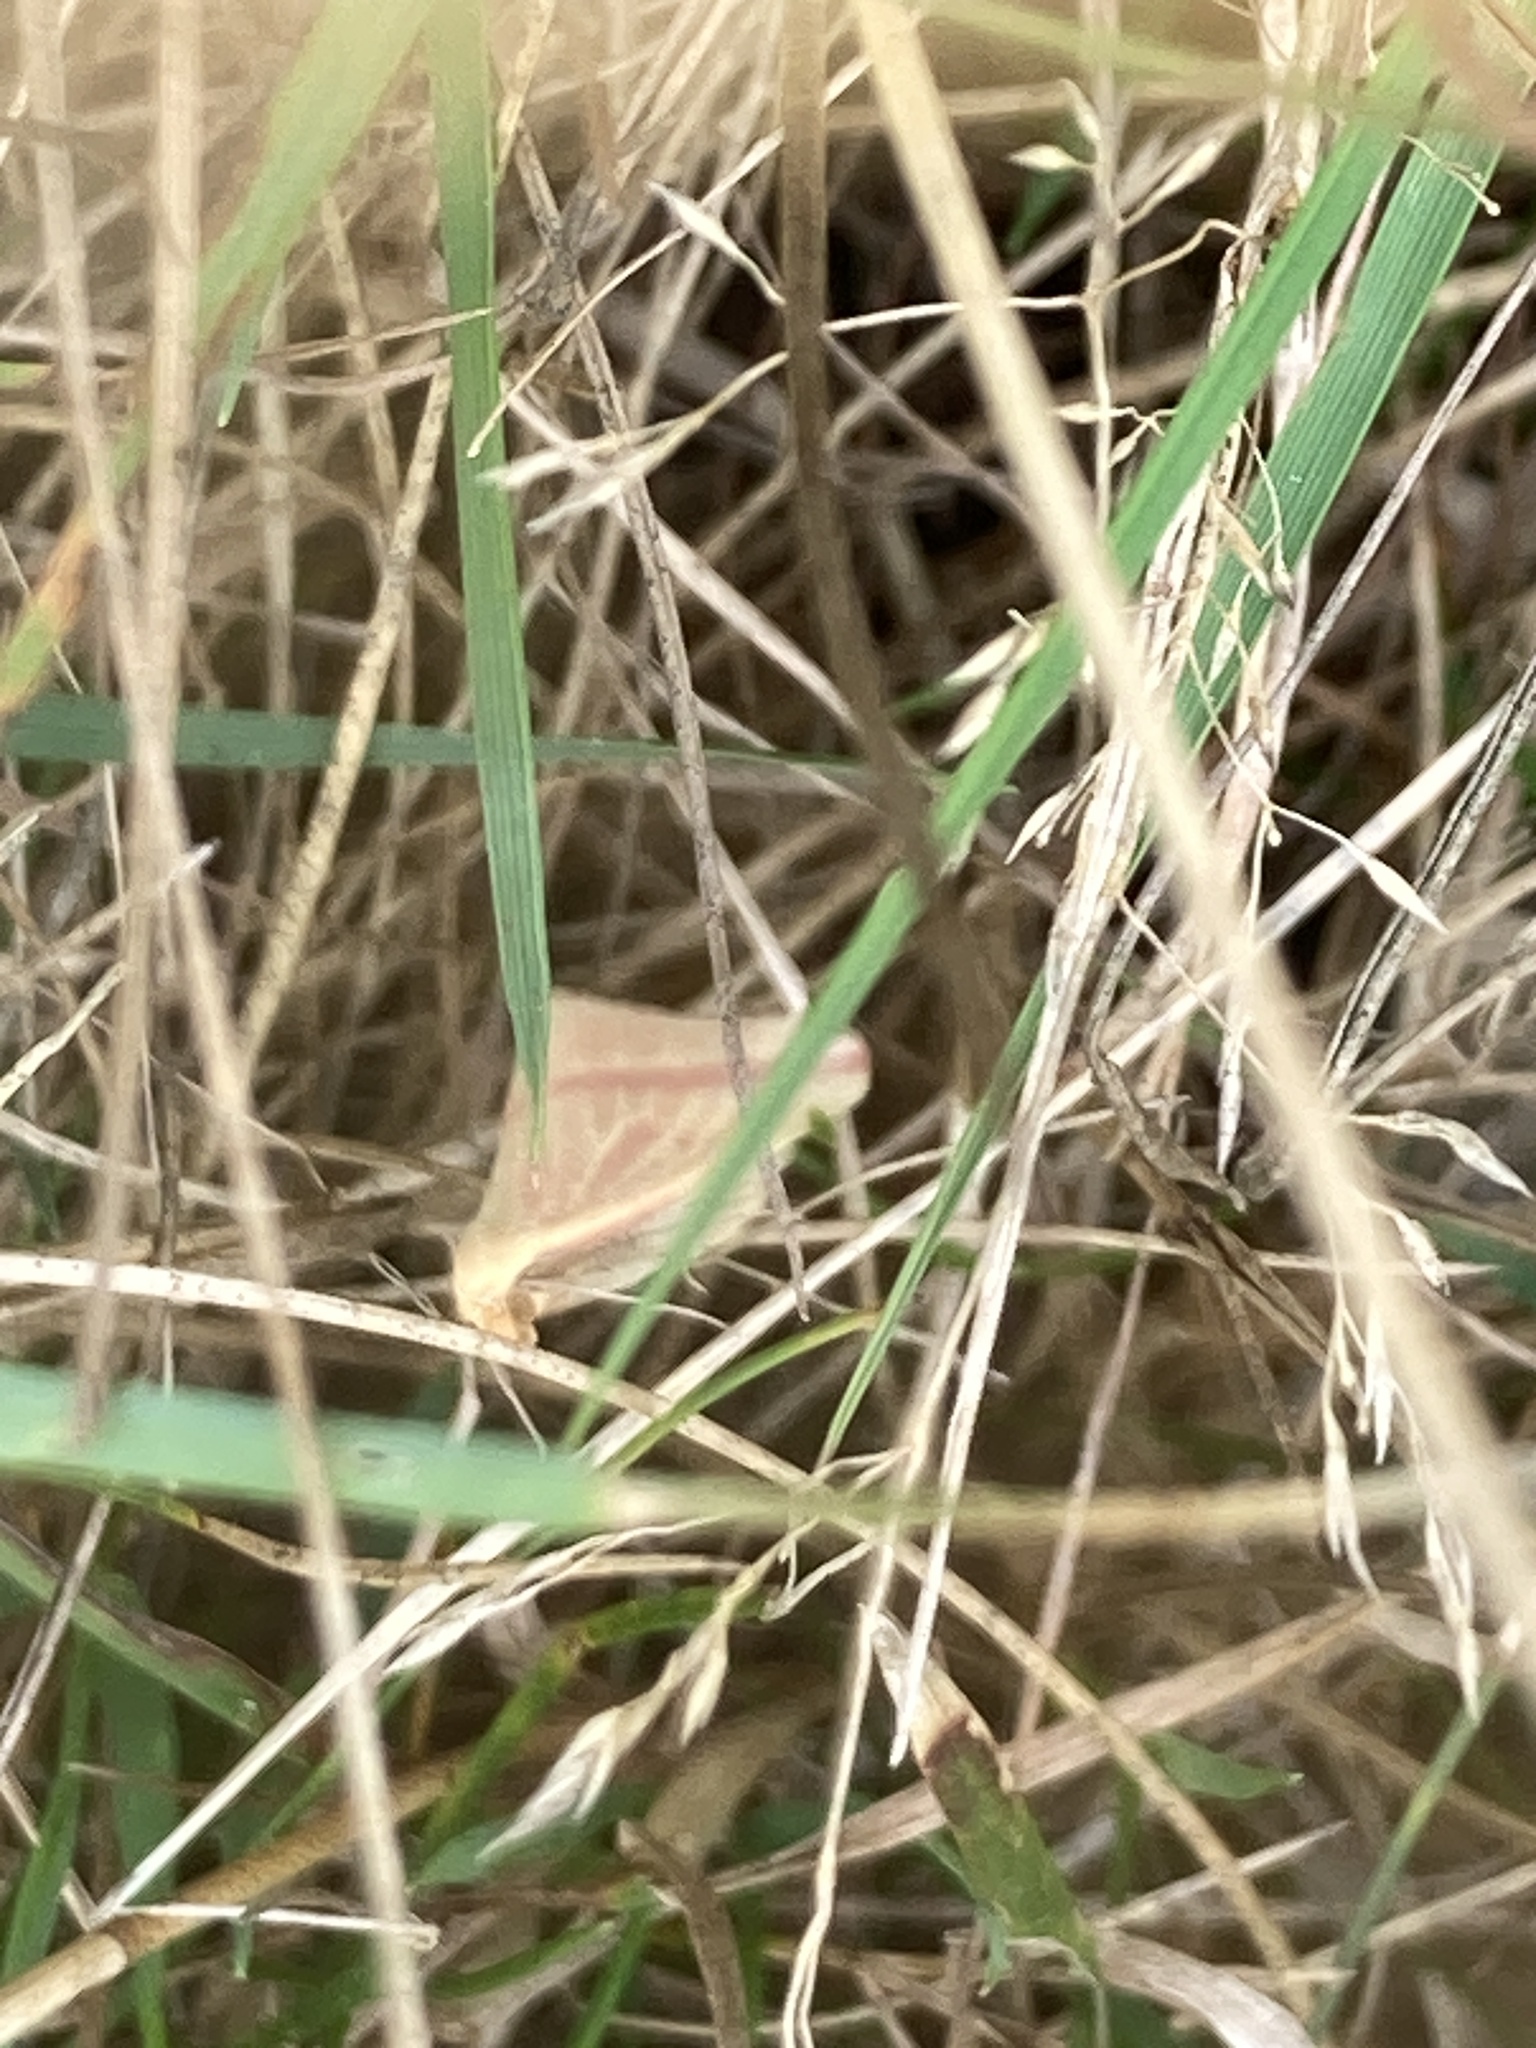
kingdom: Animalia
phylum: Arthropoda
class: Insecta
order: Lepidoptera
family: Geometridae
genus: Rhodometra
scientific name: Rhodometra sacraria
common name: Vestal
